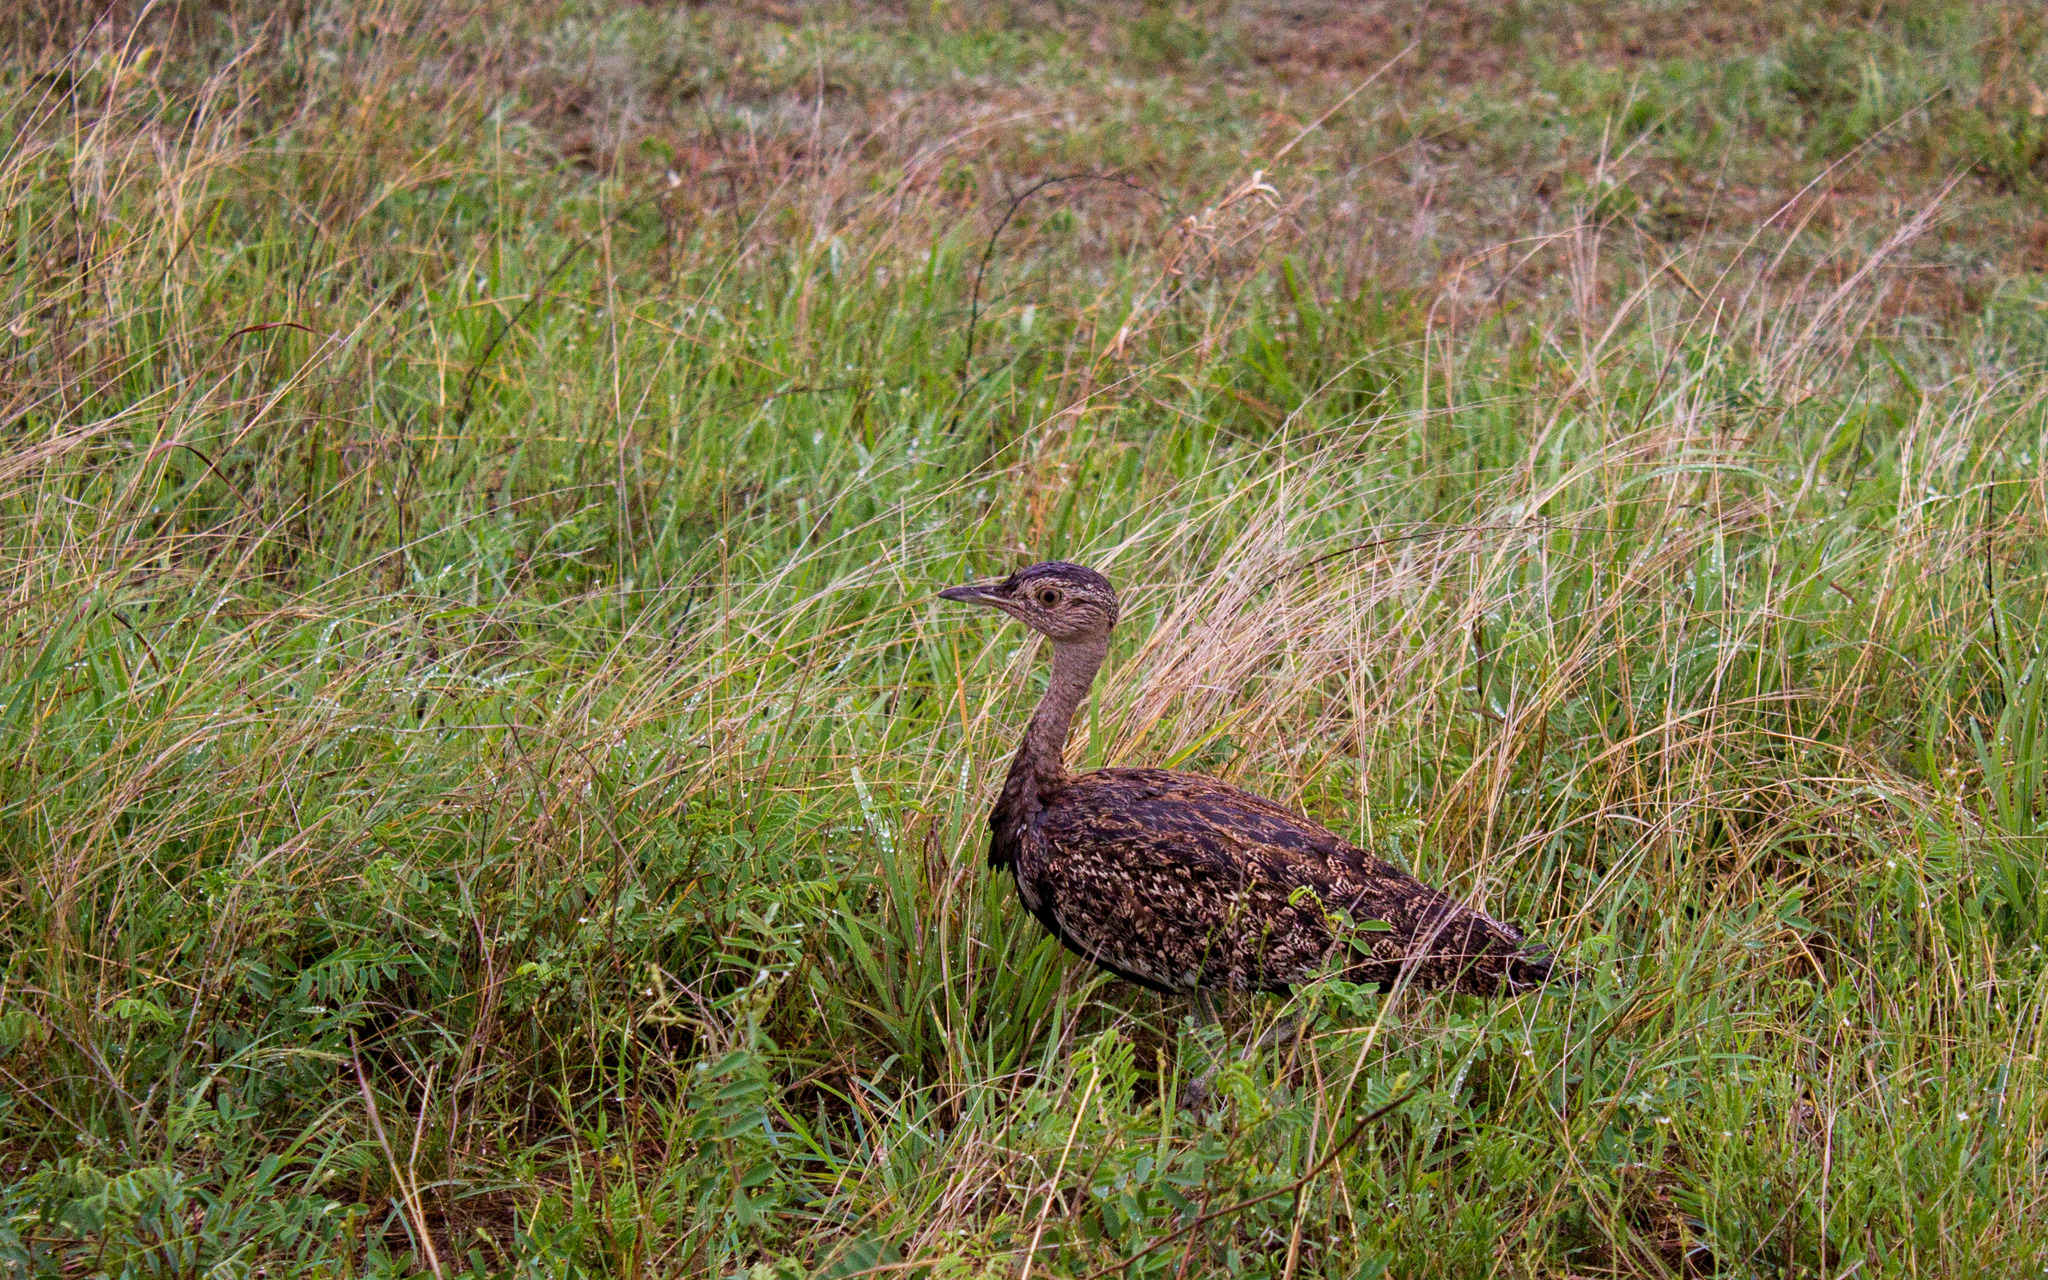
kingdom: Animalia
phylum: Chordata
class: Aves
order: Otidiformes
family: Otididae
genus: Lophotis
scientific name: Lophotis ruficrista
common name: Red-crested korhaan
